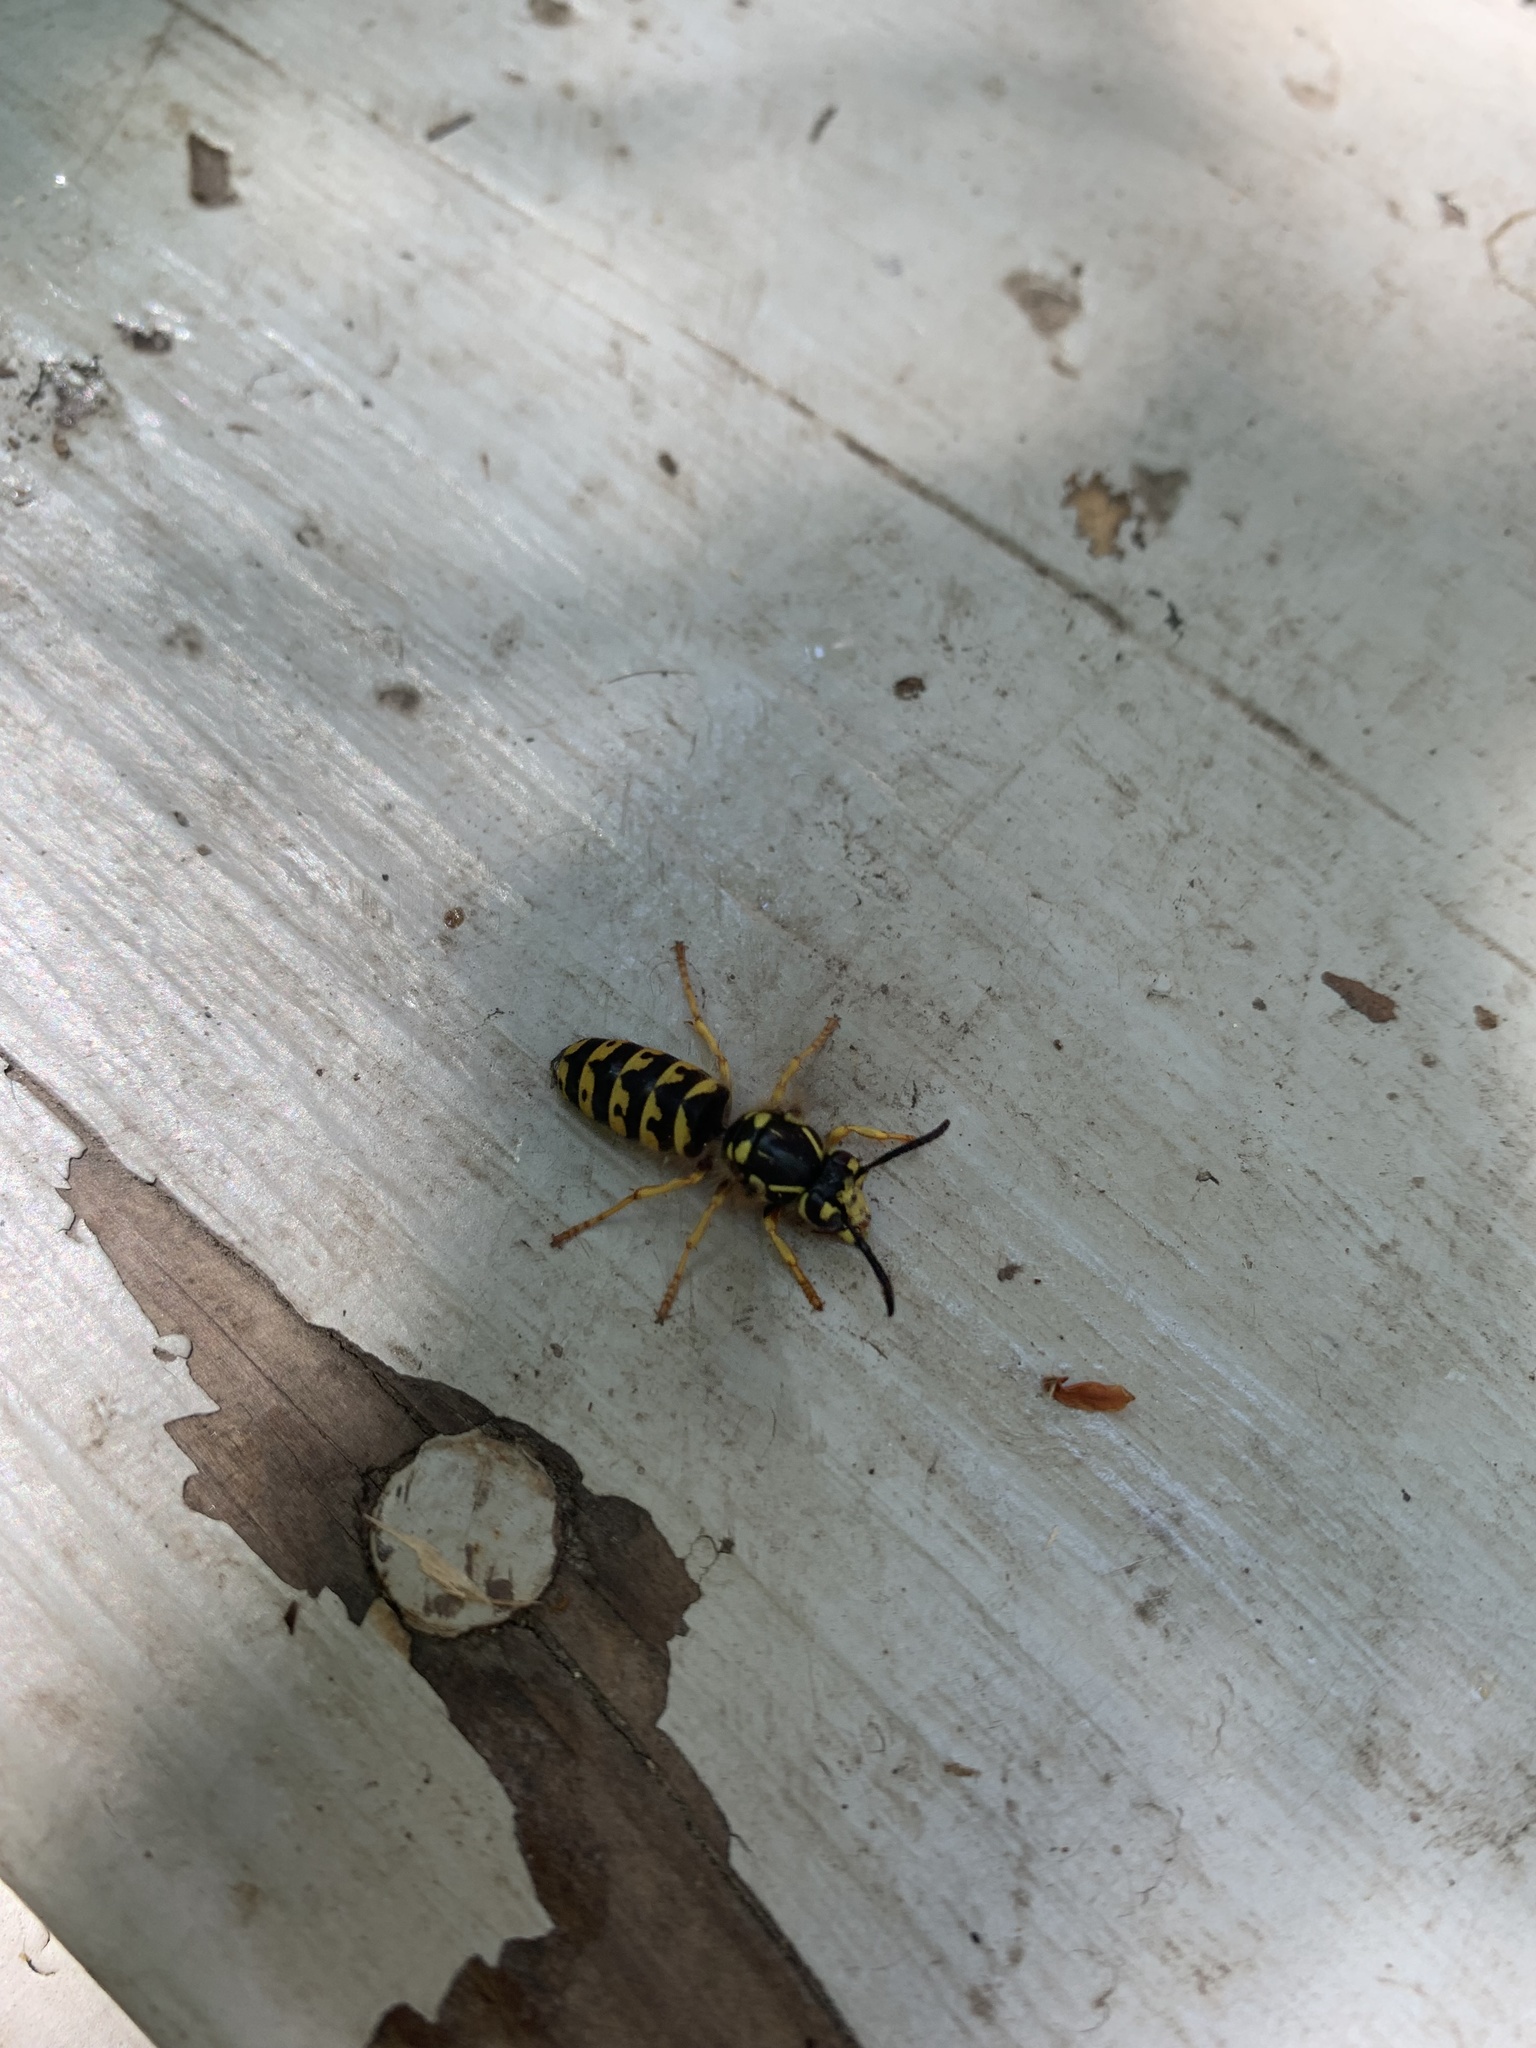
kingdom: Animalia
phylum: Arthropoda
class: Insecta
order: Hymenoptera
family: Vespidae
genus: Dolichovespula
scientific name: Dolichovespula arenaria
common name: Aerial yellowjacket
